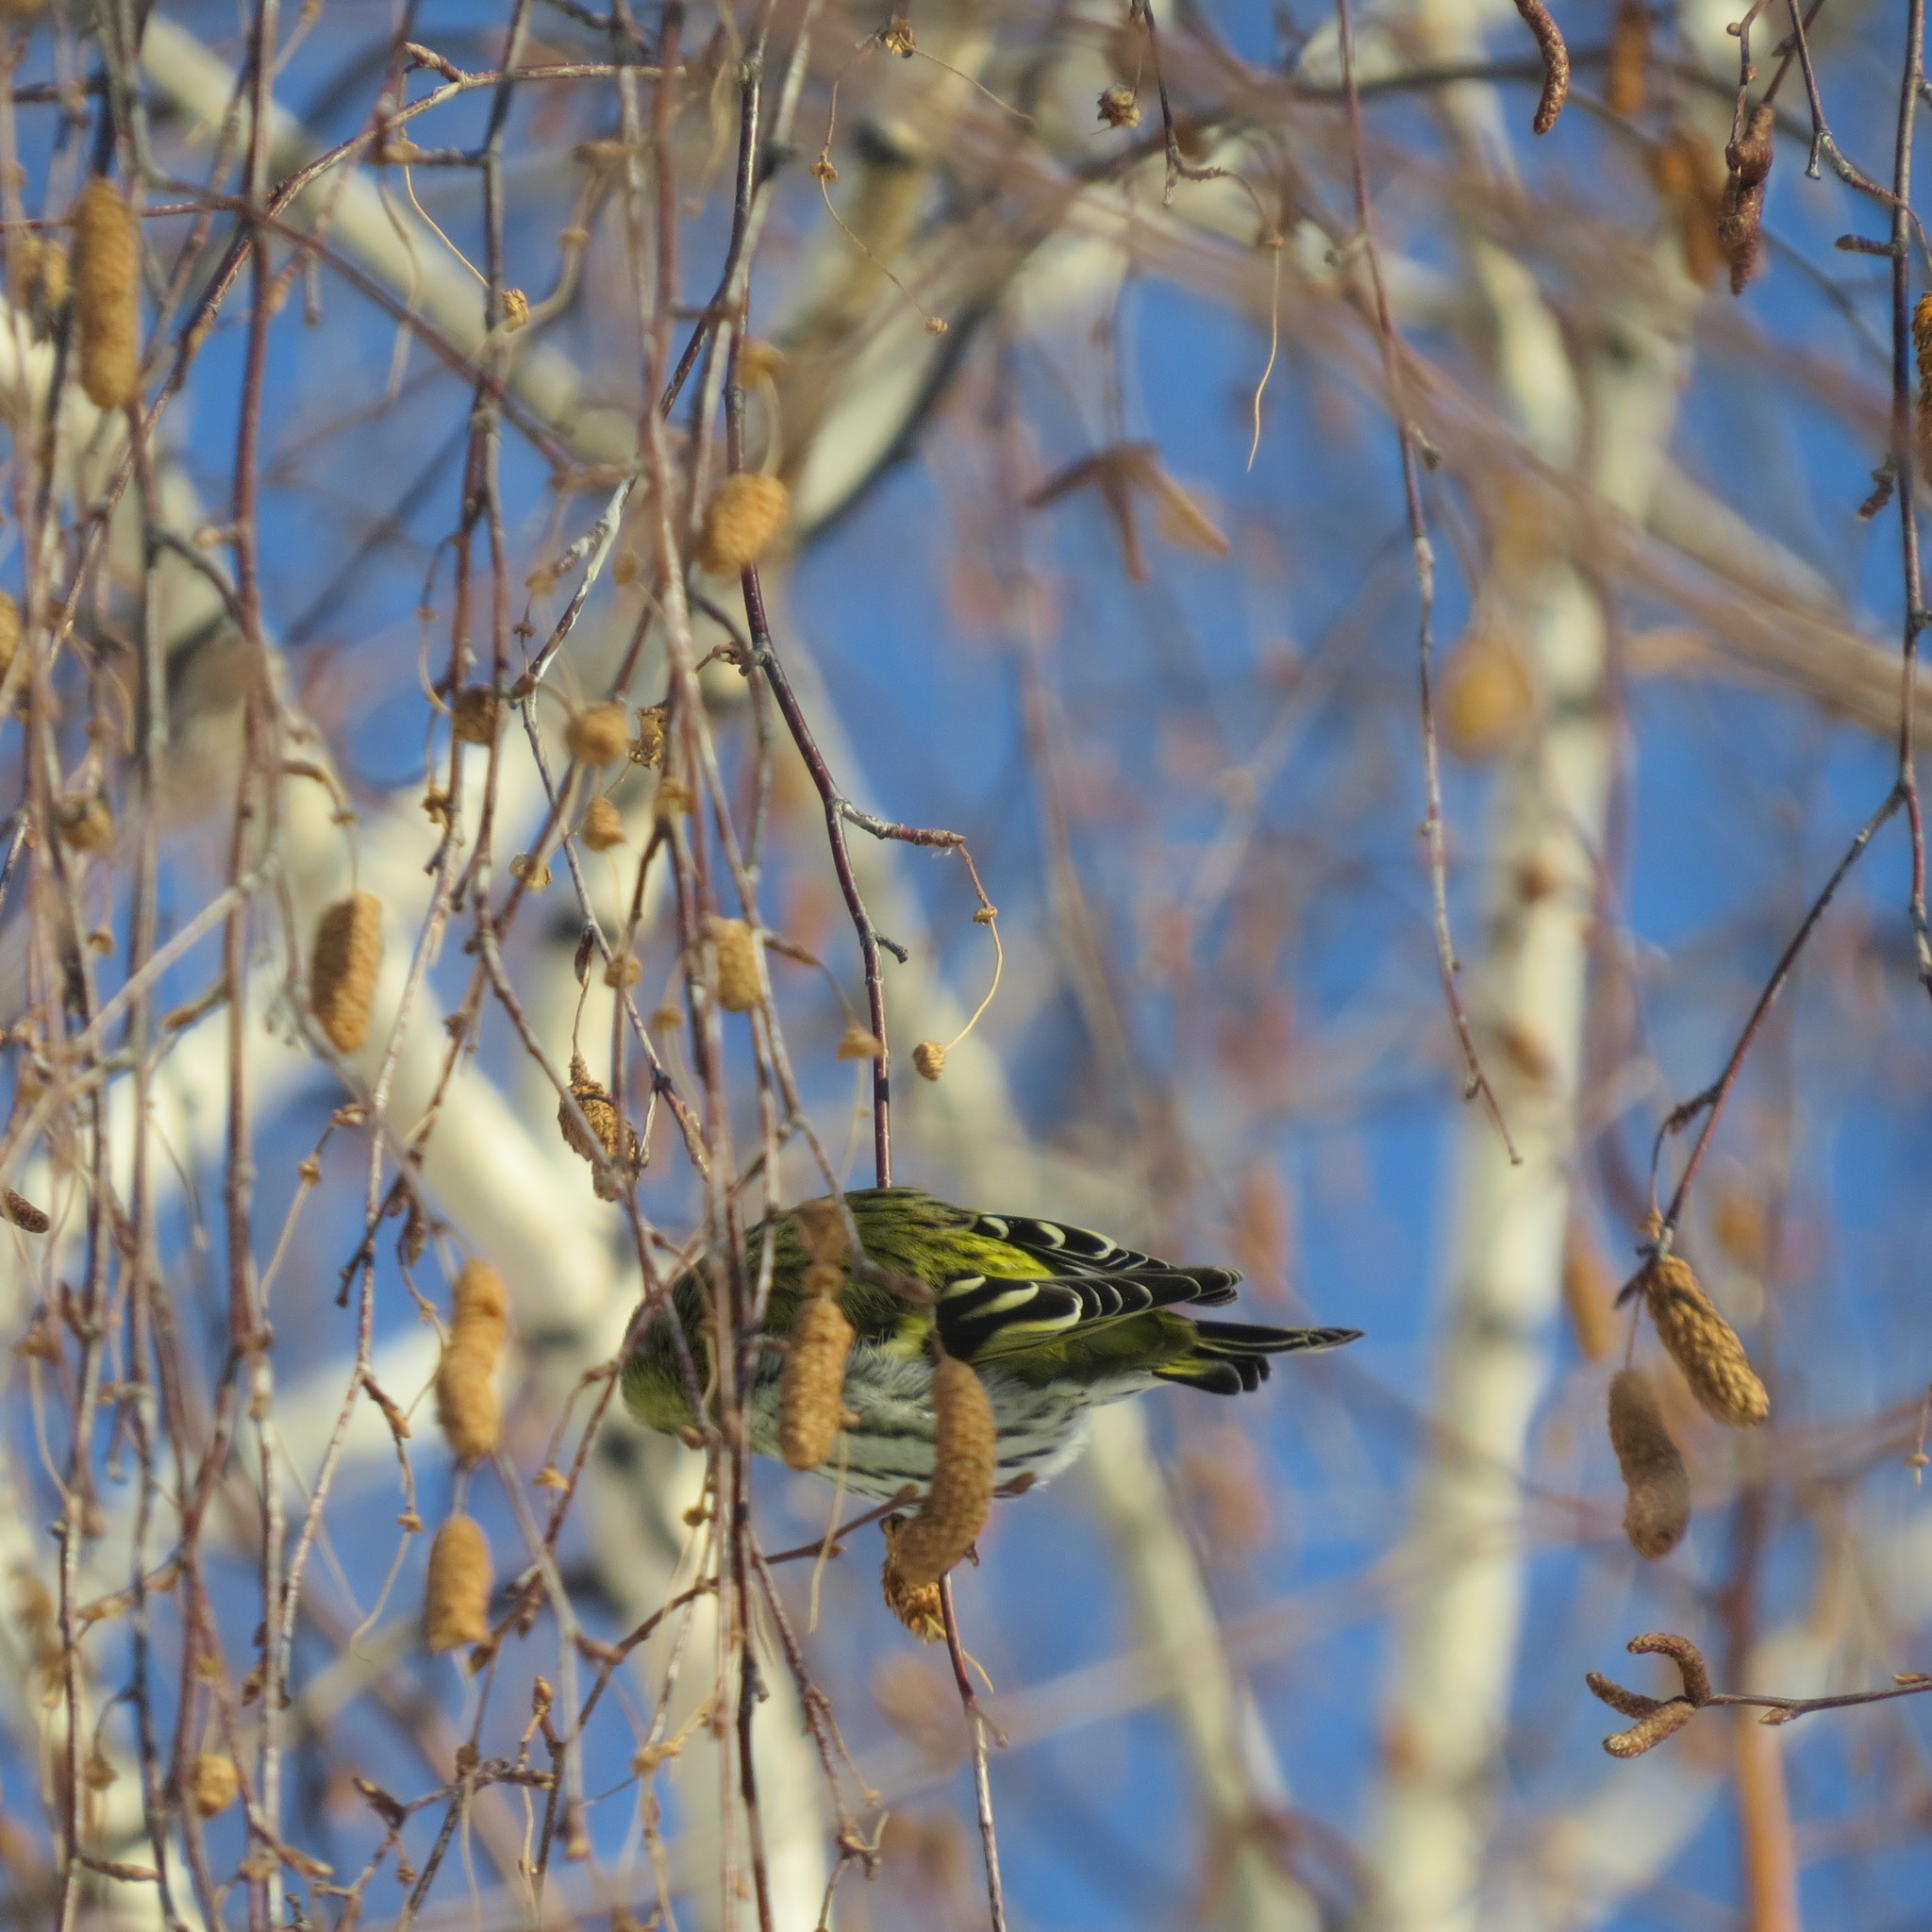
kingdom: Animalia
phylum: Chordata
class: Aves
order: Passeriformes
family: Fringillidae
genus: Spinus
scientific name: Spinus spinus
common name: Eurasian siskin
